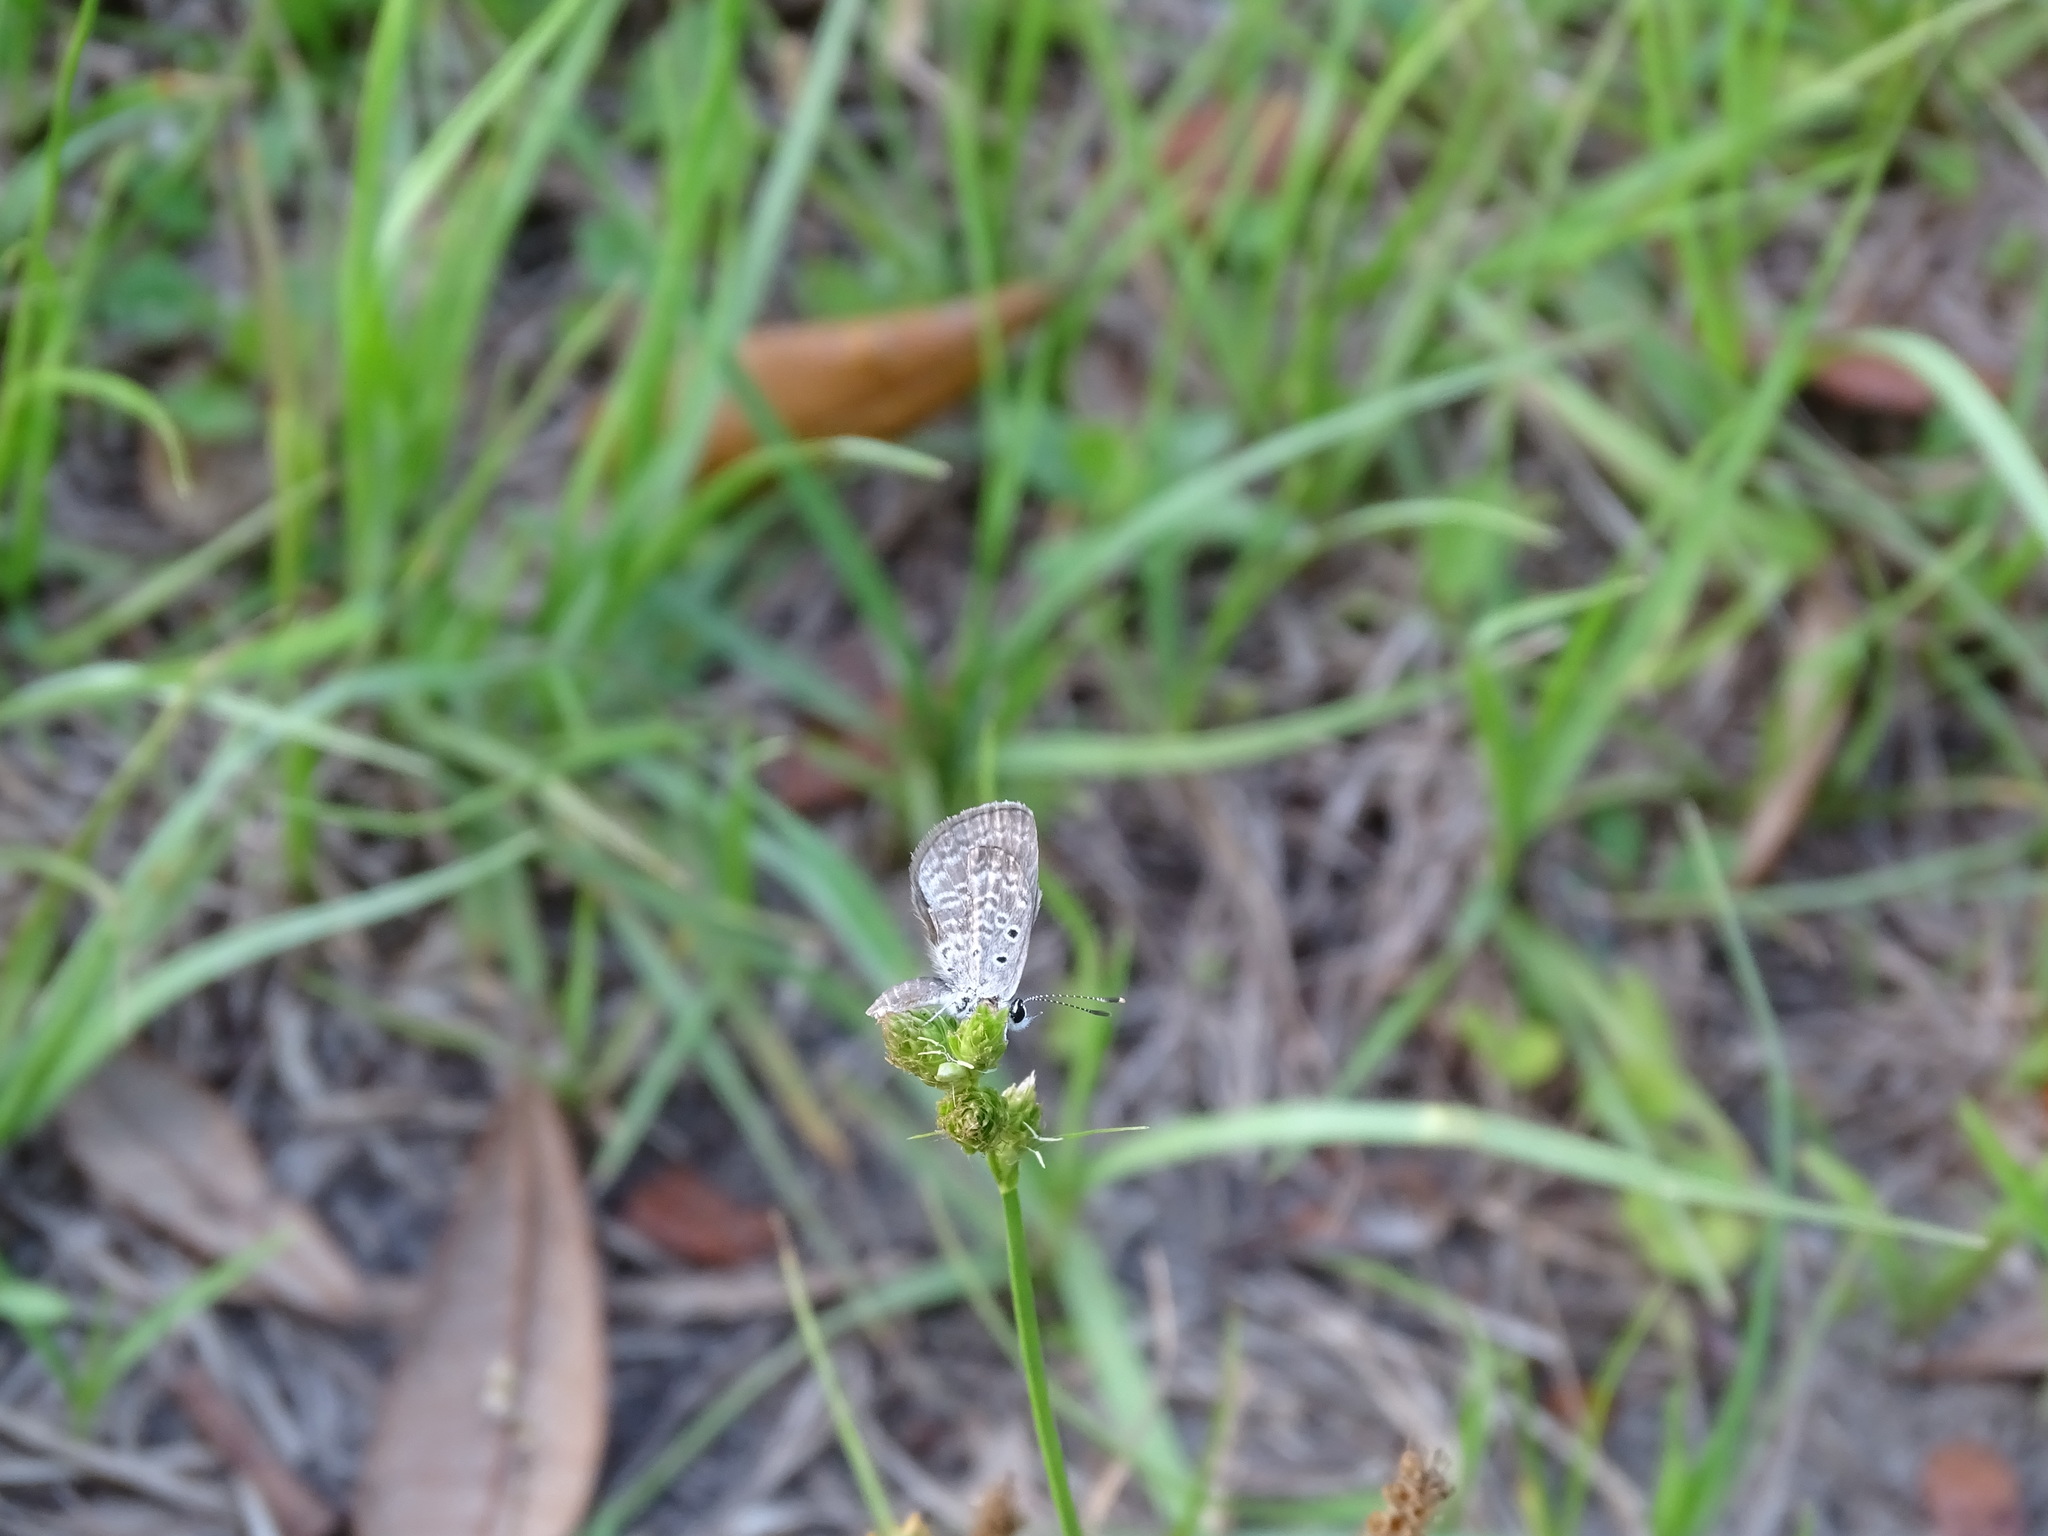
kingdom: Animalia
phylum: Arthropoda
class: Insecta
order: Lepidoptera
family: Lycaenidae
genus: Hemiargus
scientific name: Hemiargus ceraunus
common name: Ceraunus blue
